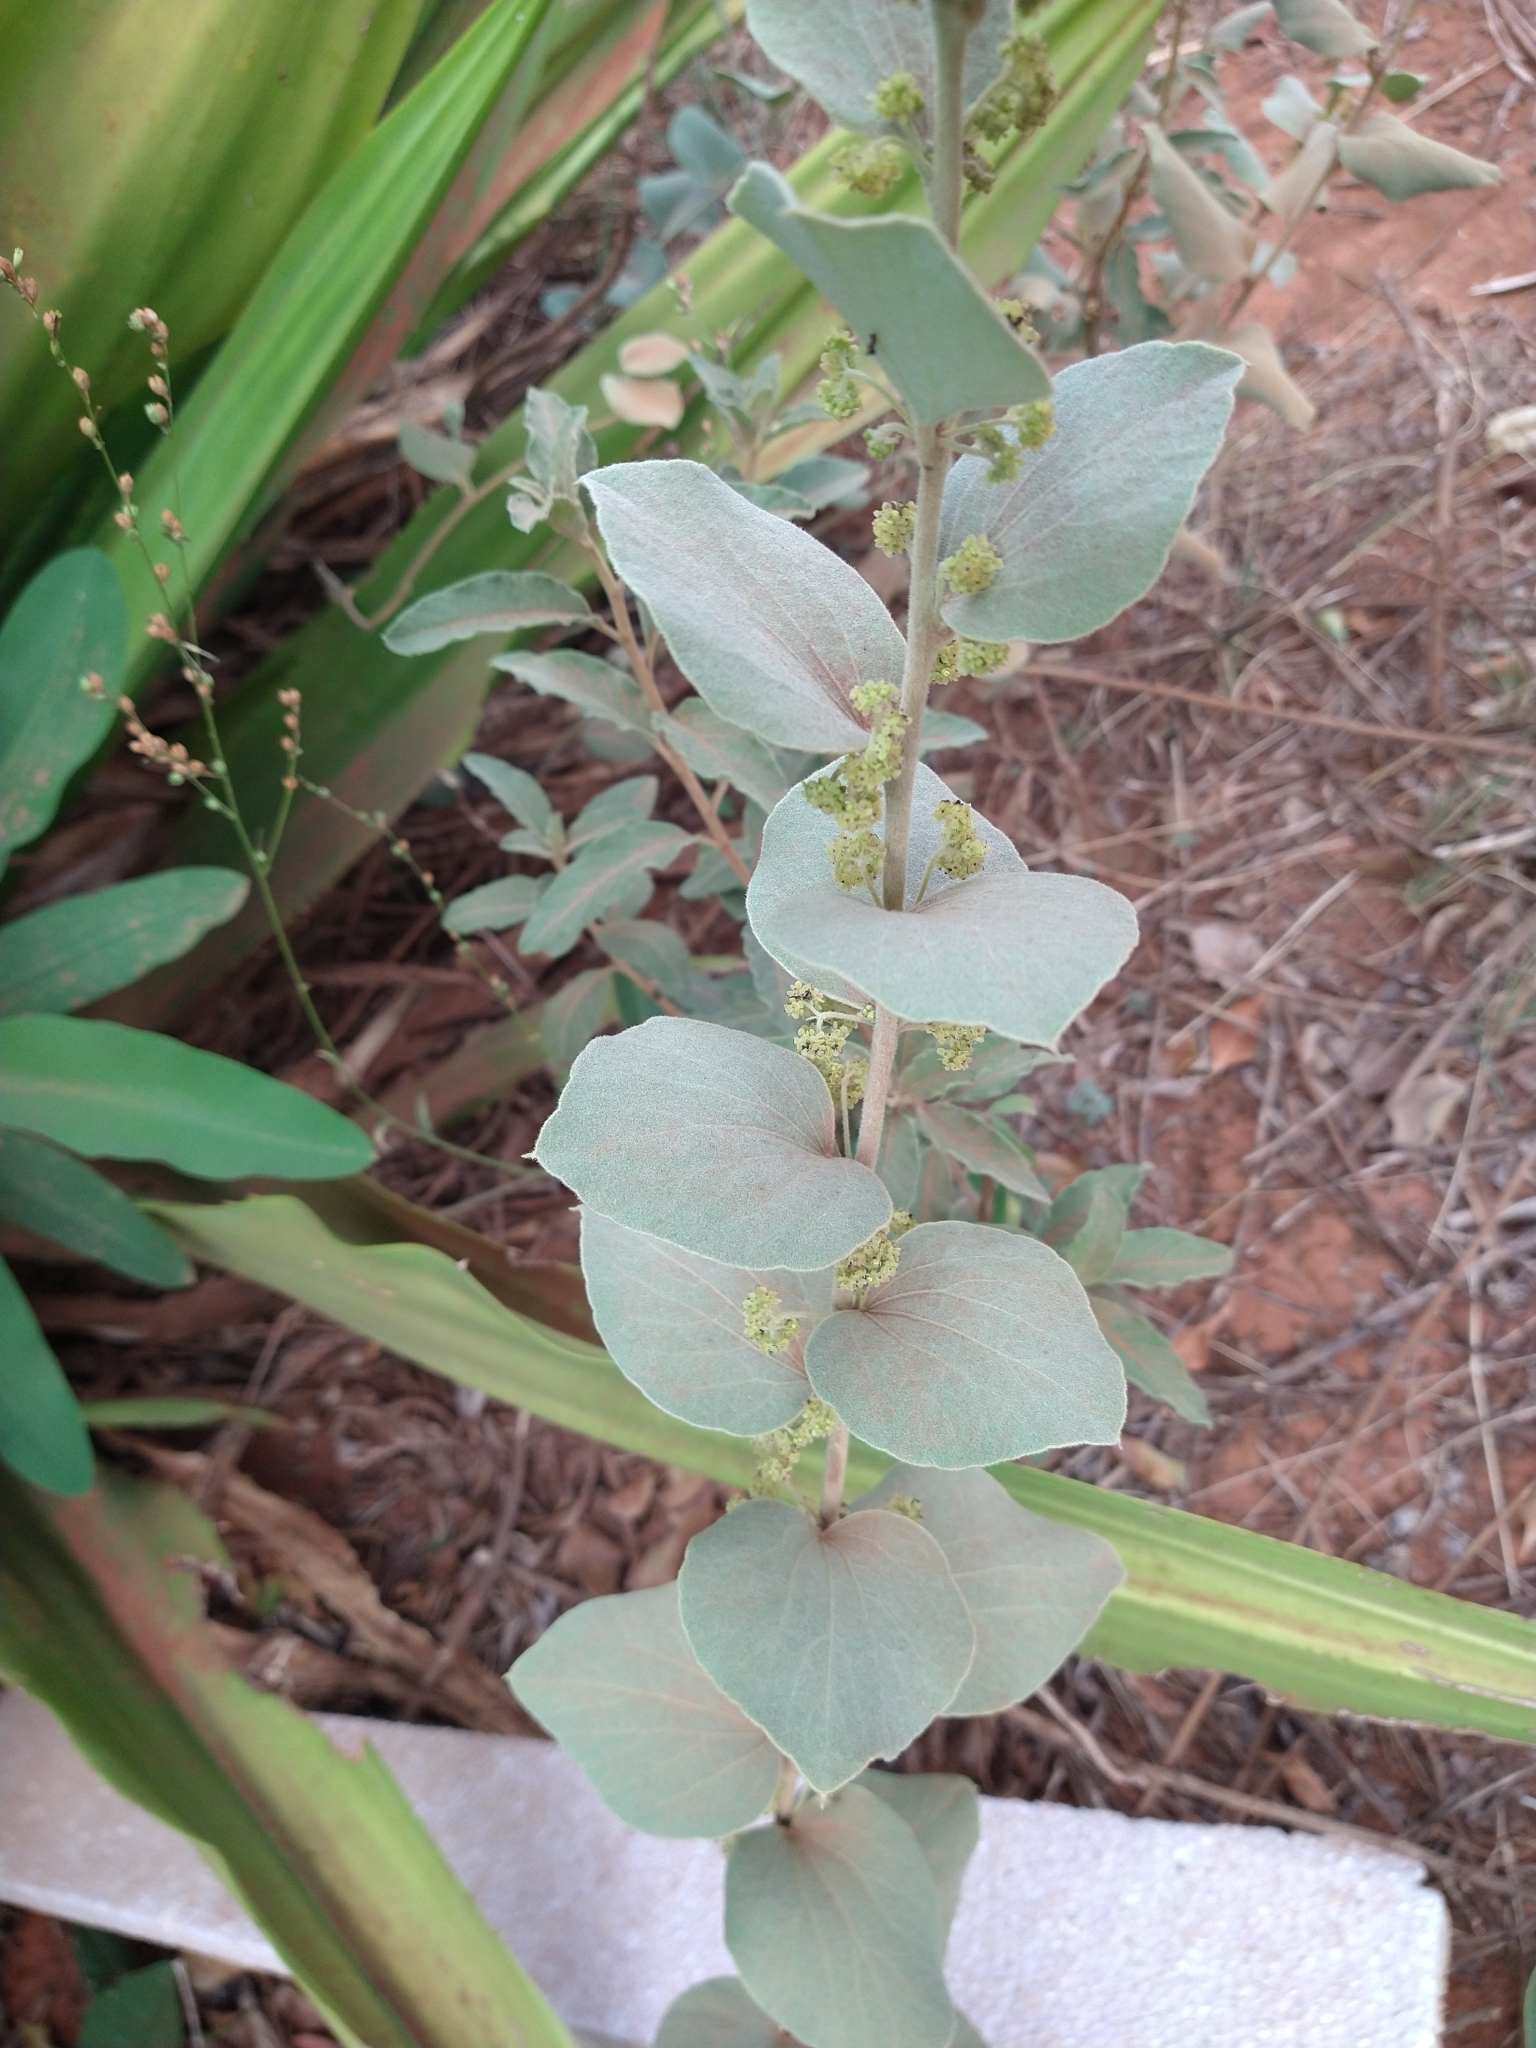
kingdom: Plantae
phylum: Tracheophyta
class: Magnoliopsida
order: Ranunculales
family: Menispermaceae
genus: Cissampelos
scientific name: Cissampelos ovalifolia
